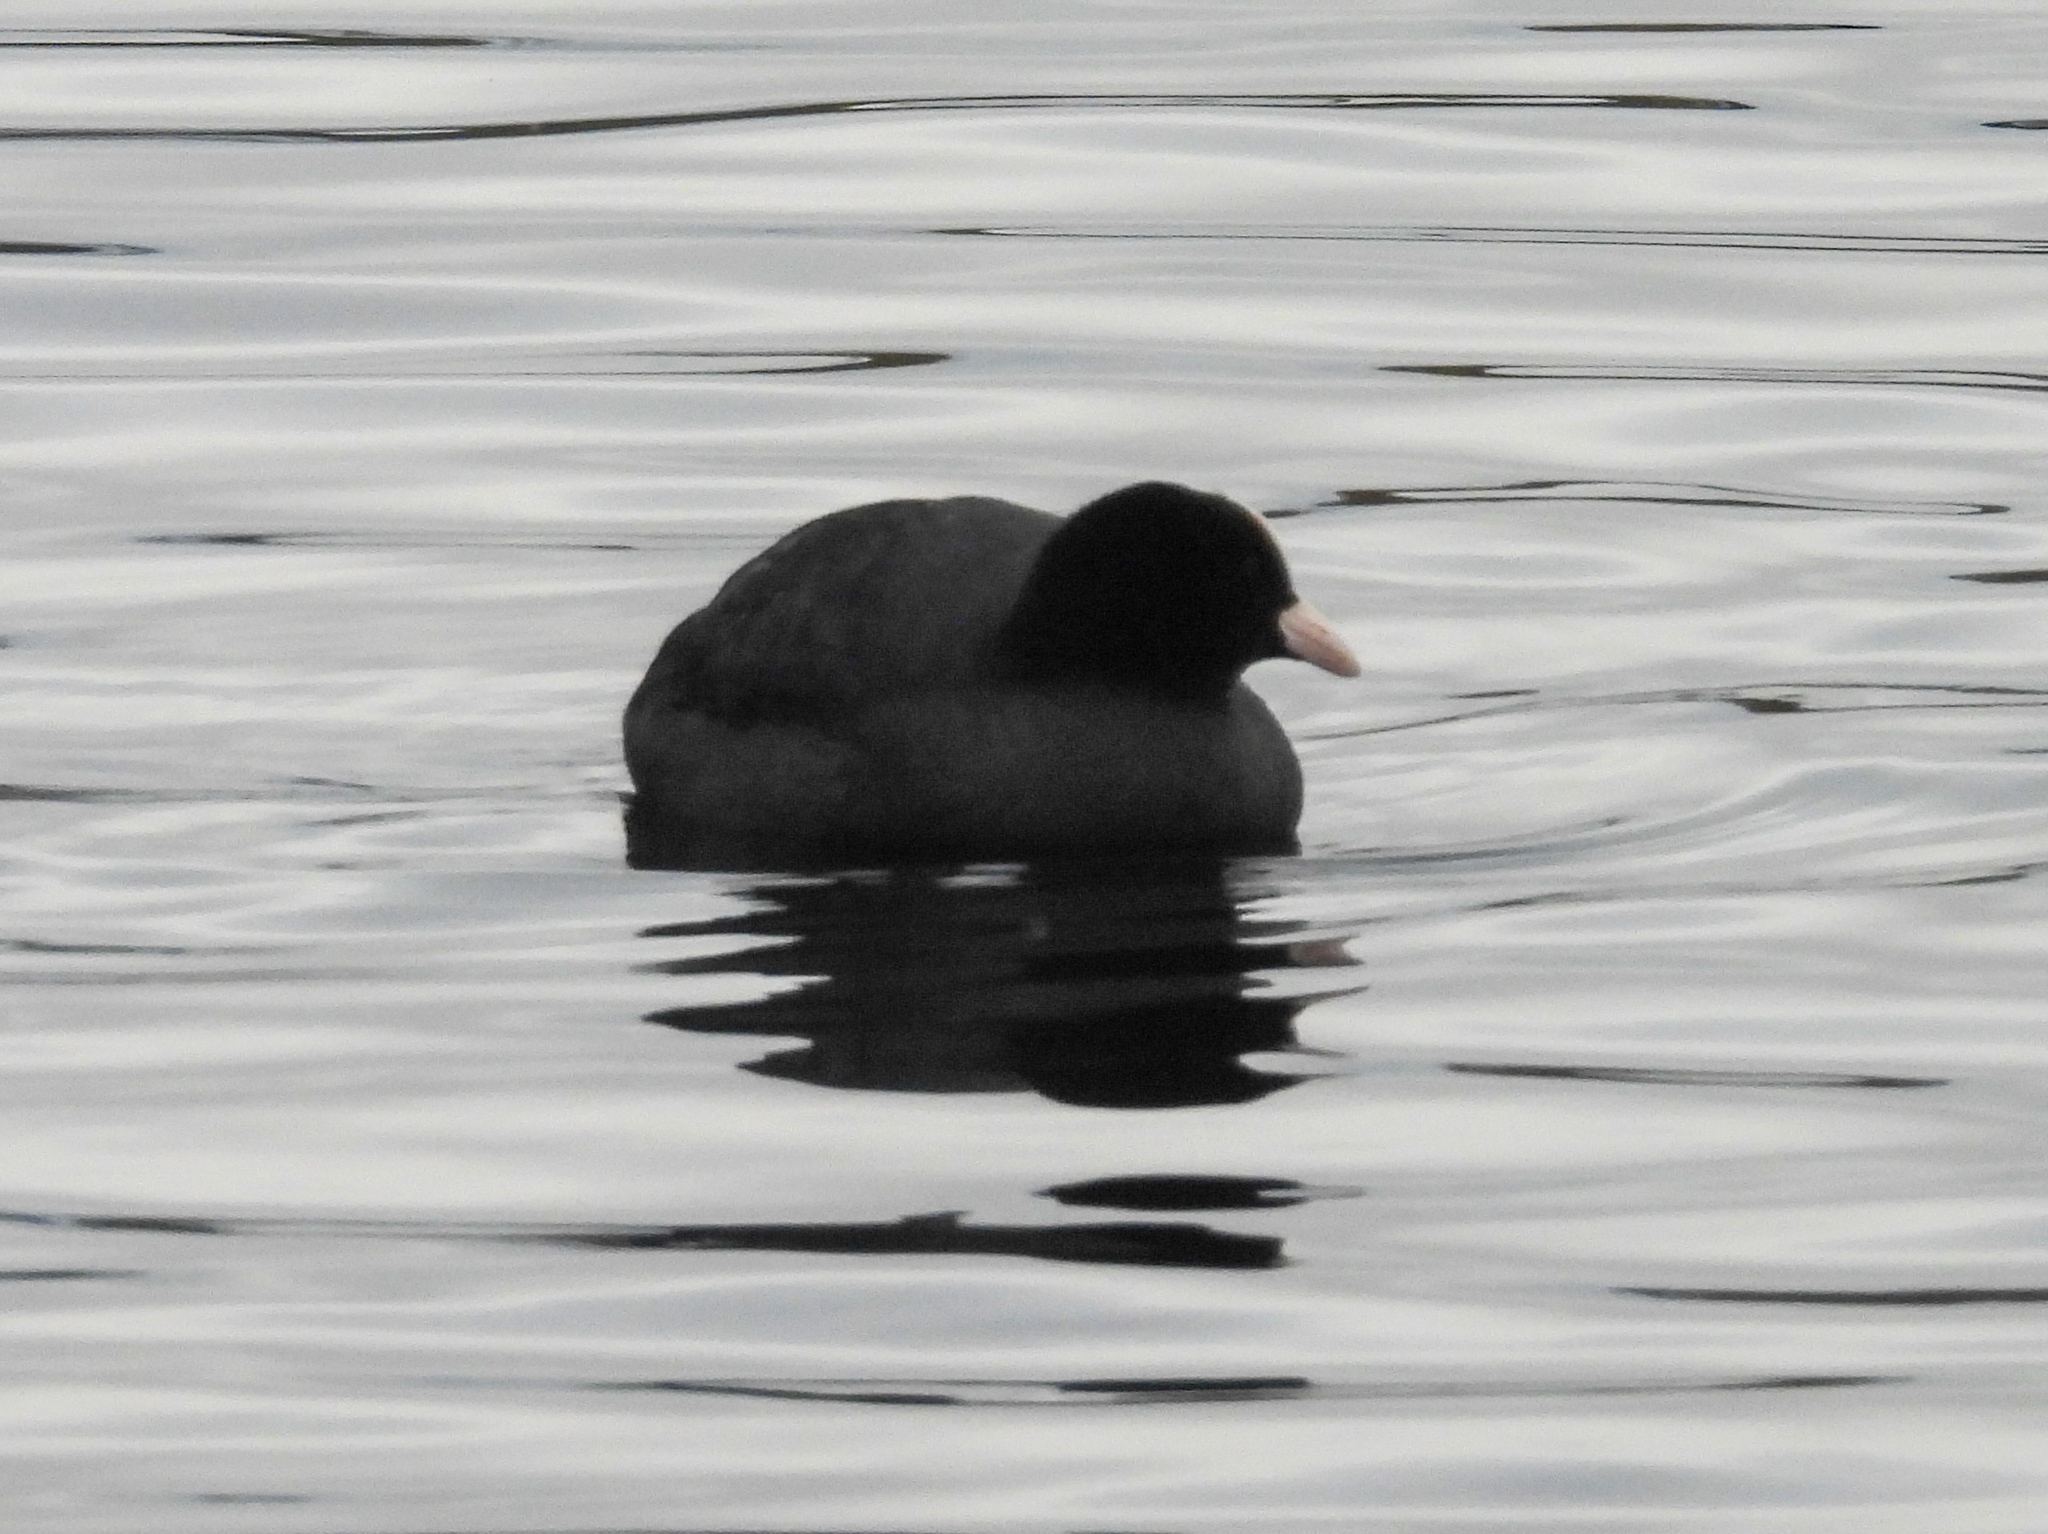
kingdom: Animalia
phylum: Chordata
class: Aves
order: Gruiformes
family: Rallidae
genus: Fulica
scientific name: Fulica atra
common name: Eurasian coot
